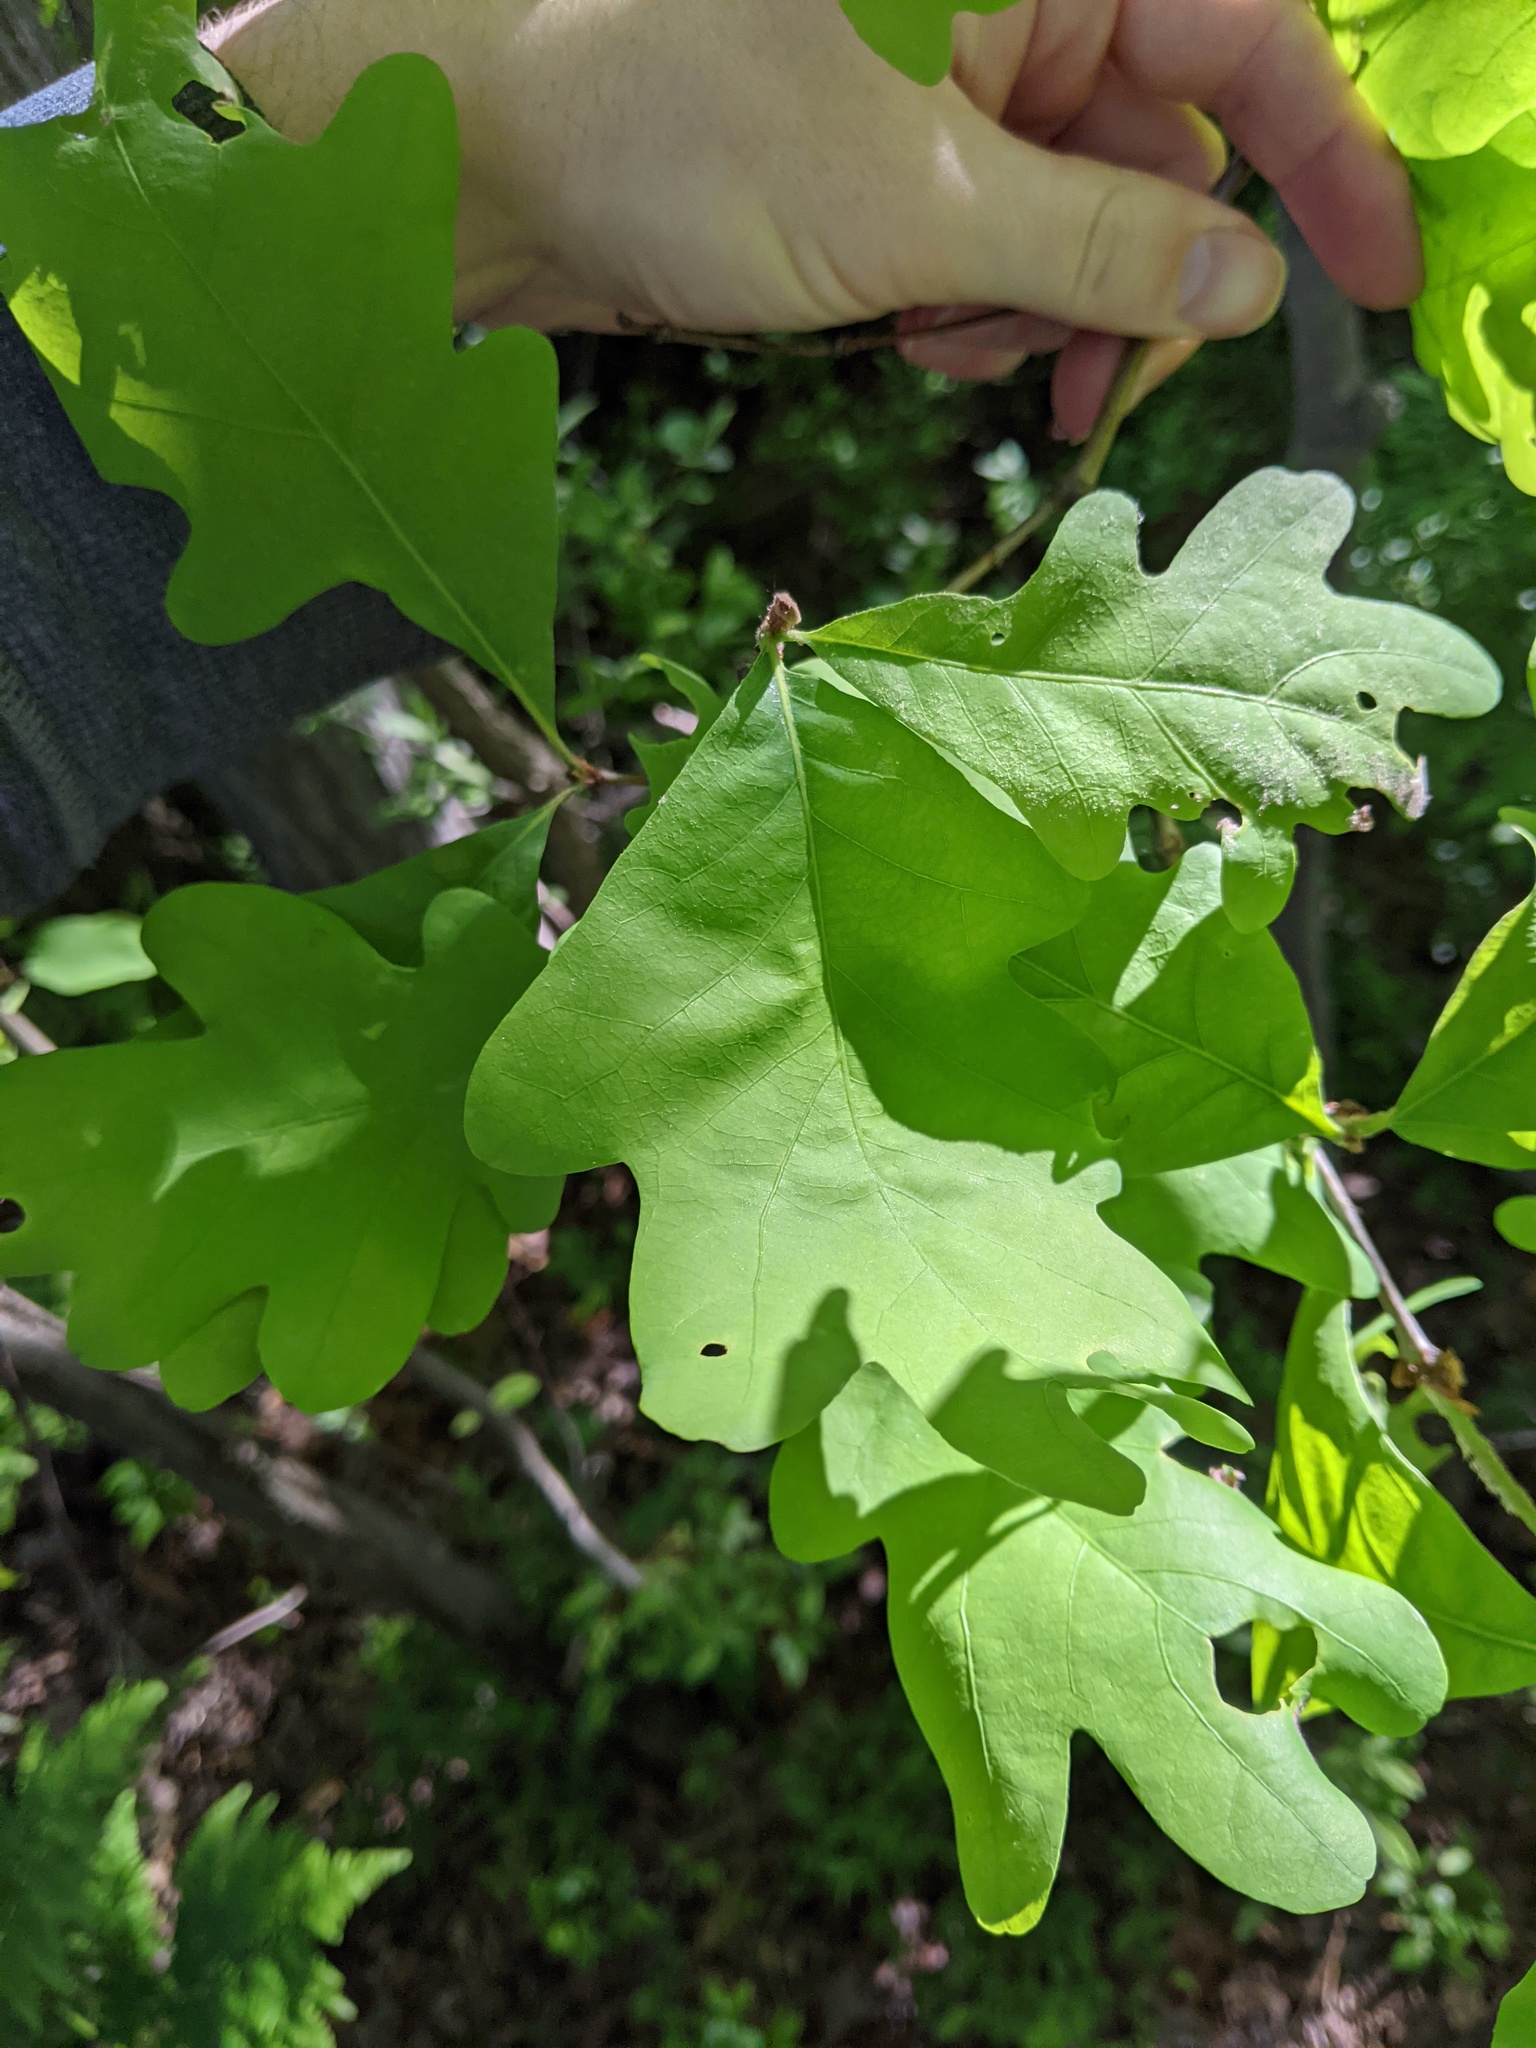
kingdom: Plantae
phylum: Tracheophyta
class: Magnoliopsida
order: Fagales
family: Fagaceae
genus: Quercus
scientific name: Quercus alba
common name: White oak
